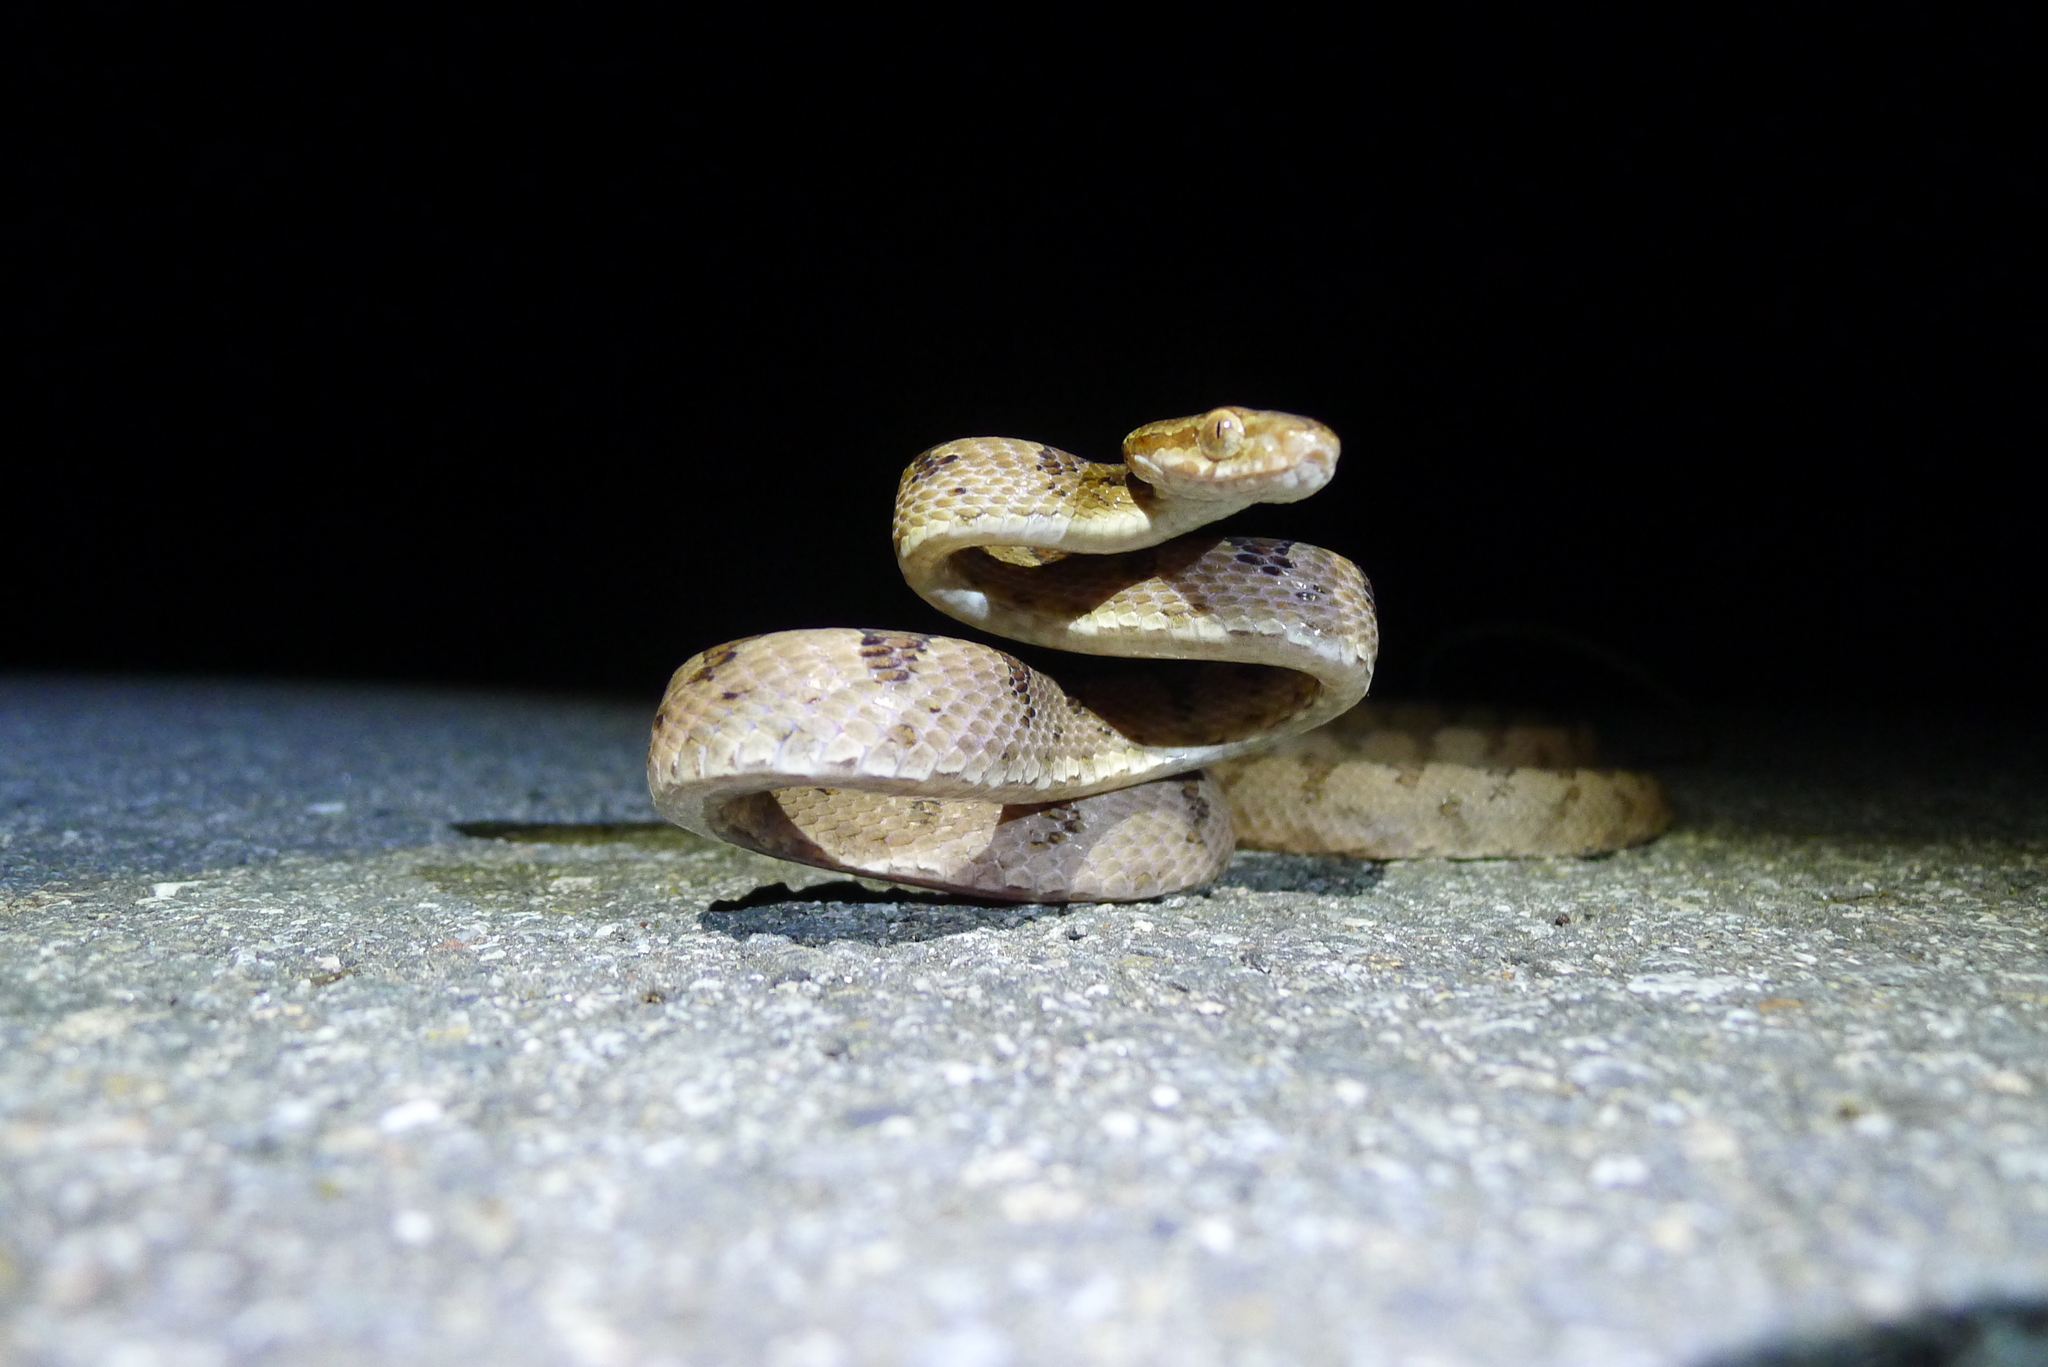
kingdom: Animalia
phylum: Chordata
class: Squamata
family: Colubridae
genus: Boiga
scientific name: Boiga kraepelini
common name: Kelung cat snake
